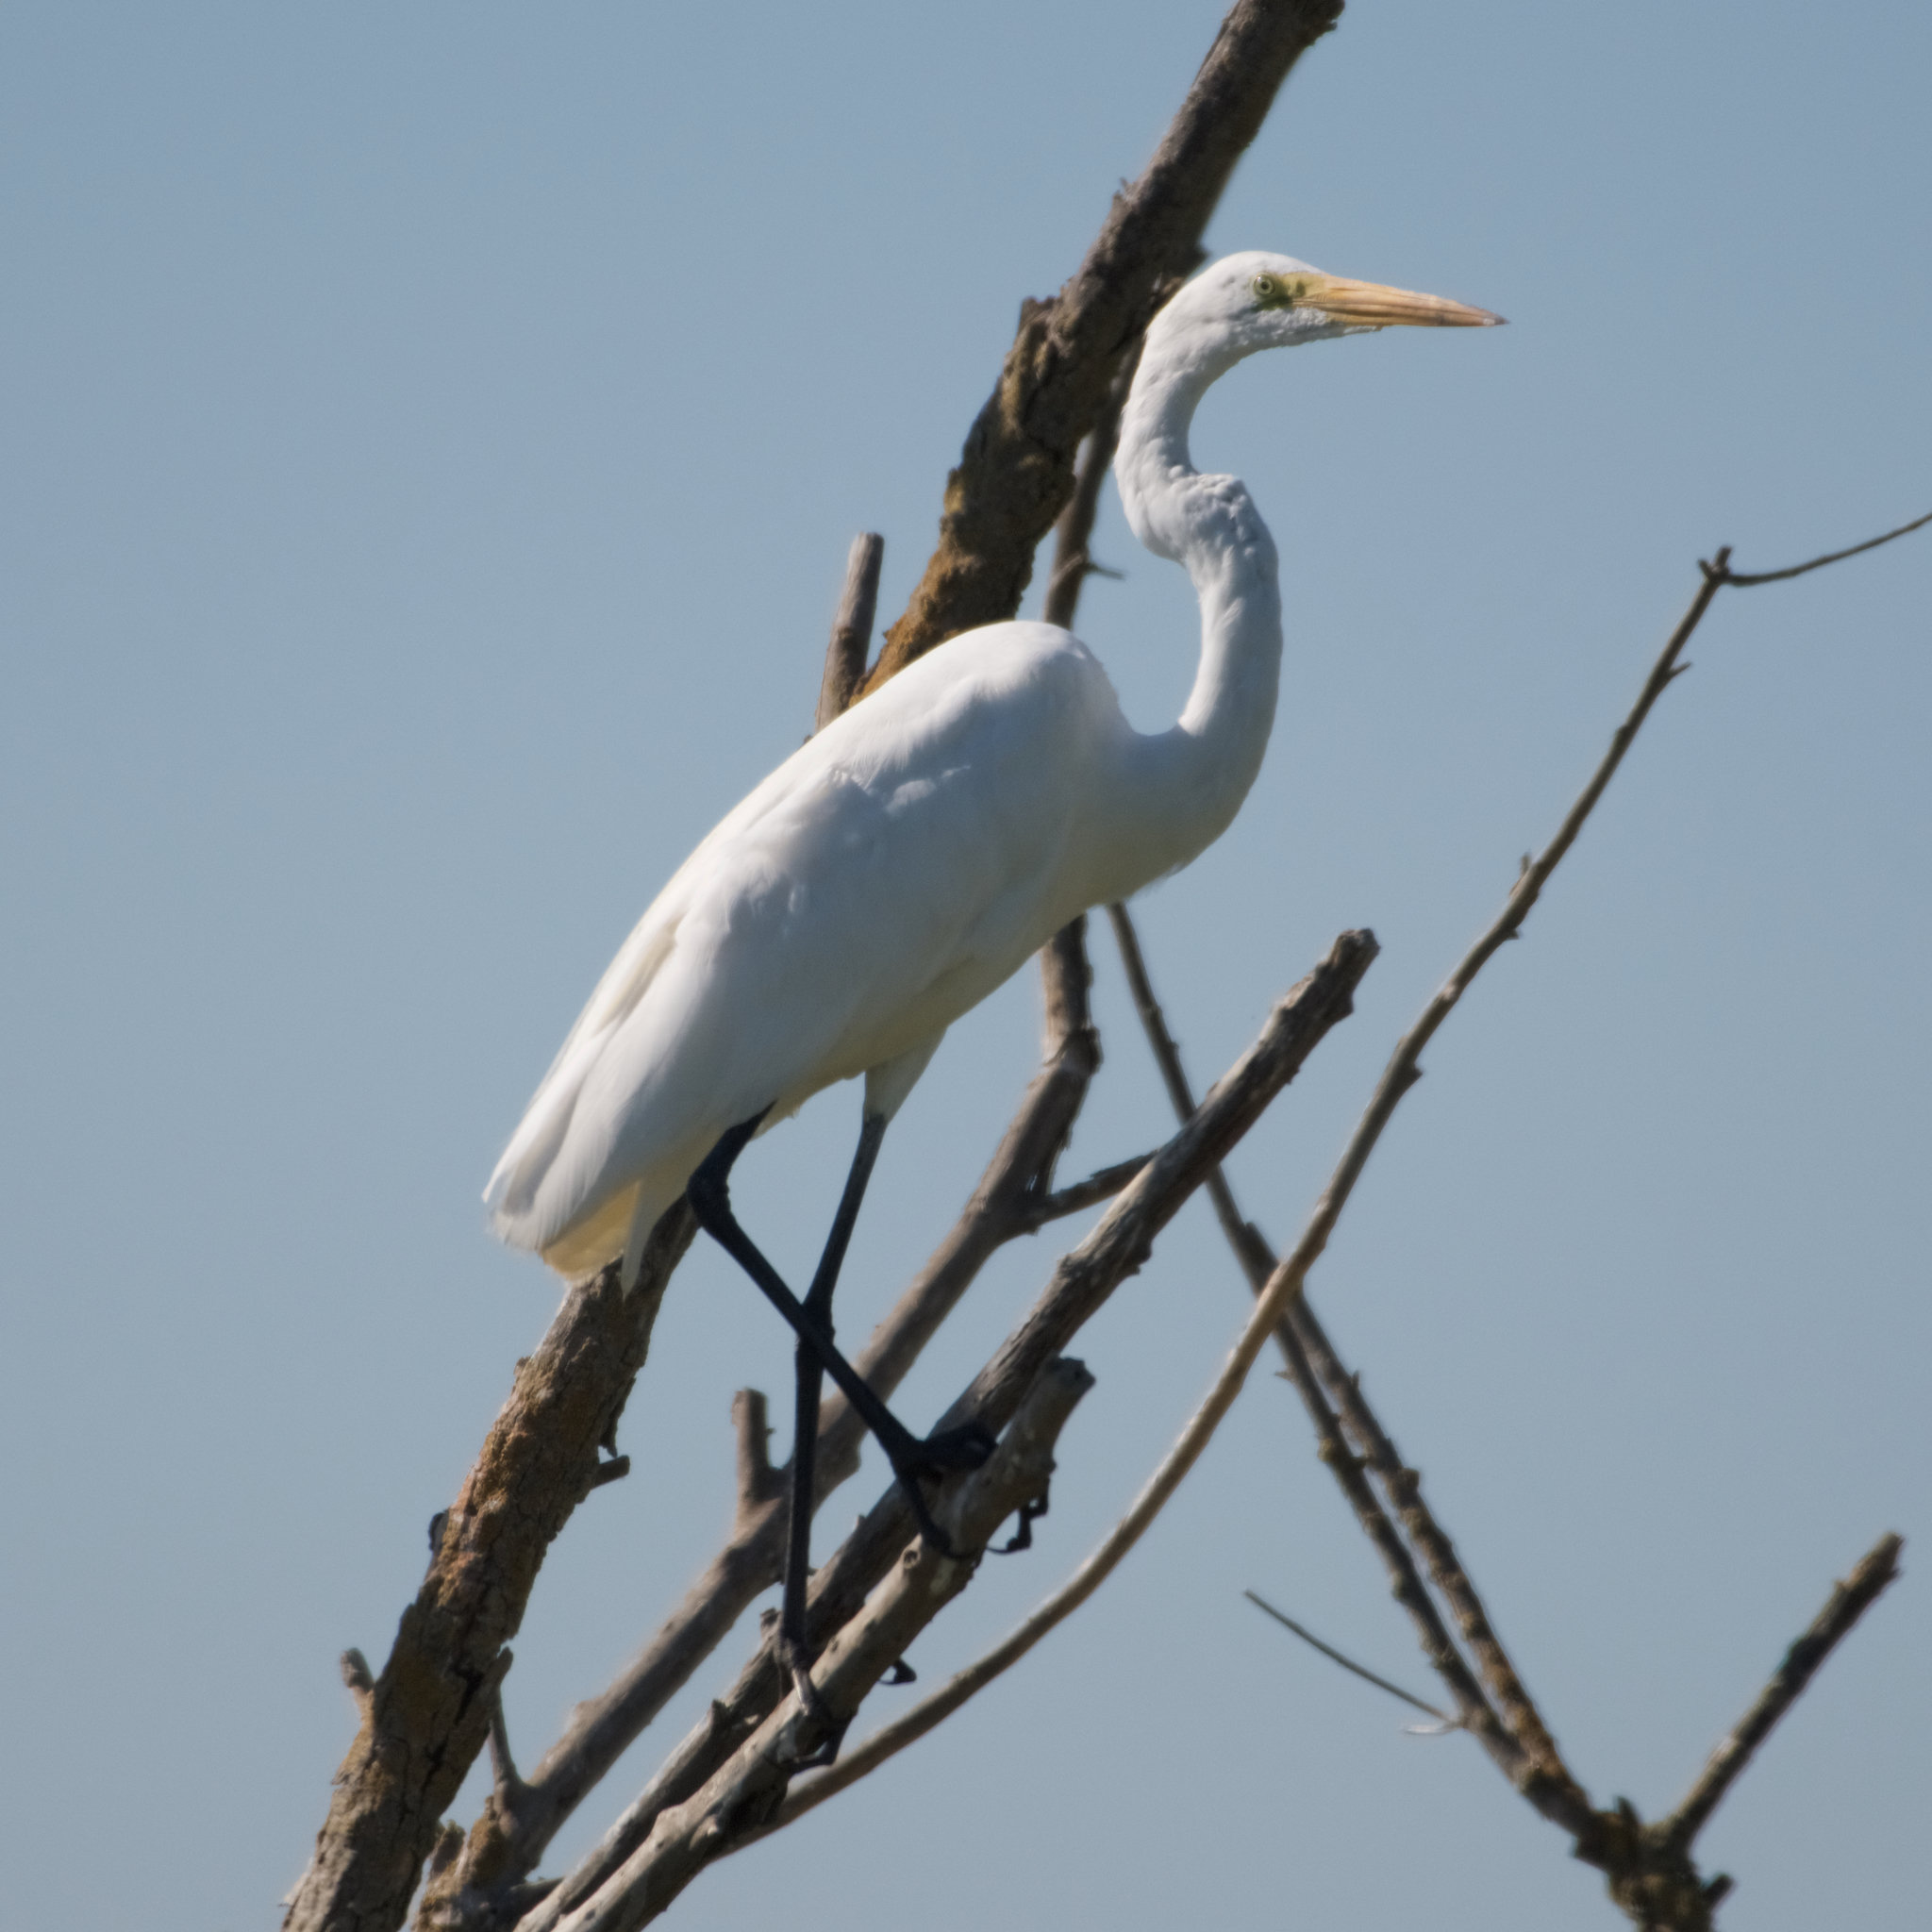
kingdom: Animalia
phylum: Chordata
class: Aves
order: Pelecaniformes
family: Ardeidae
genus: Ardea
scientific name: Ardea alba
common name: Great egret
